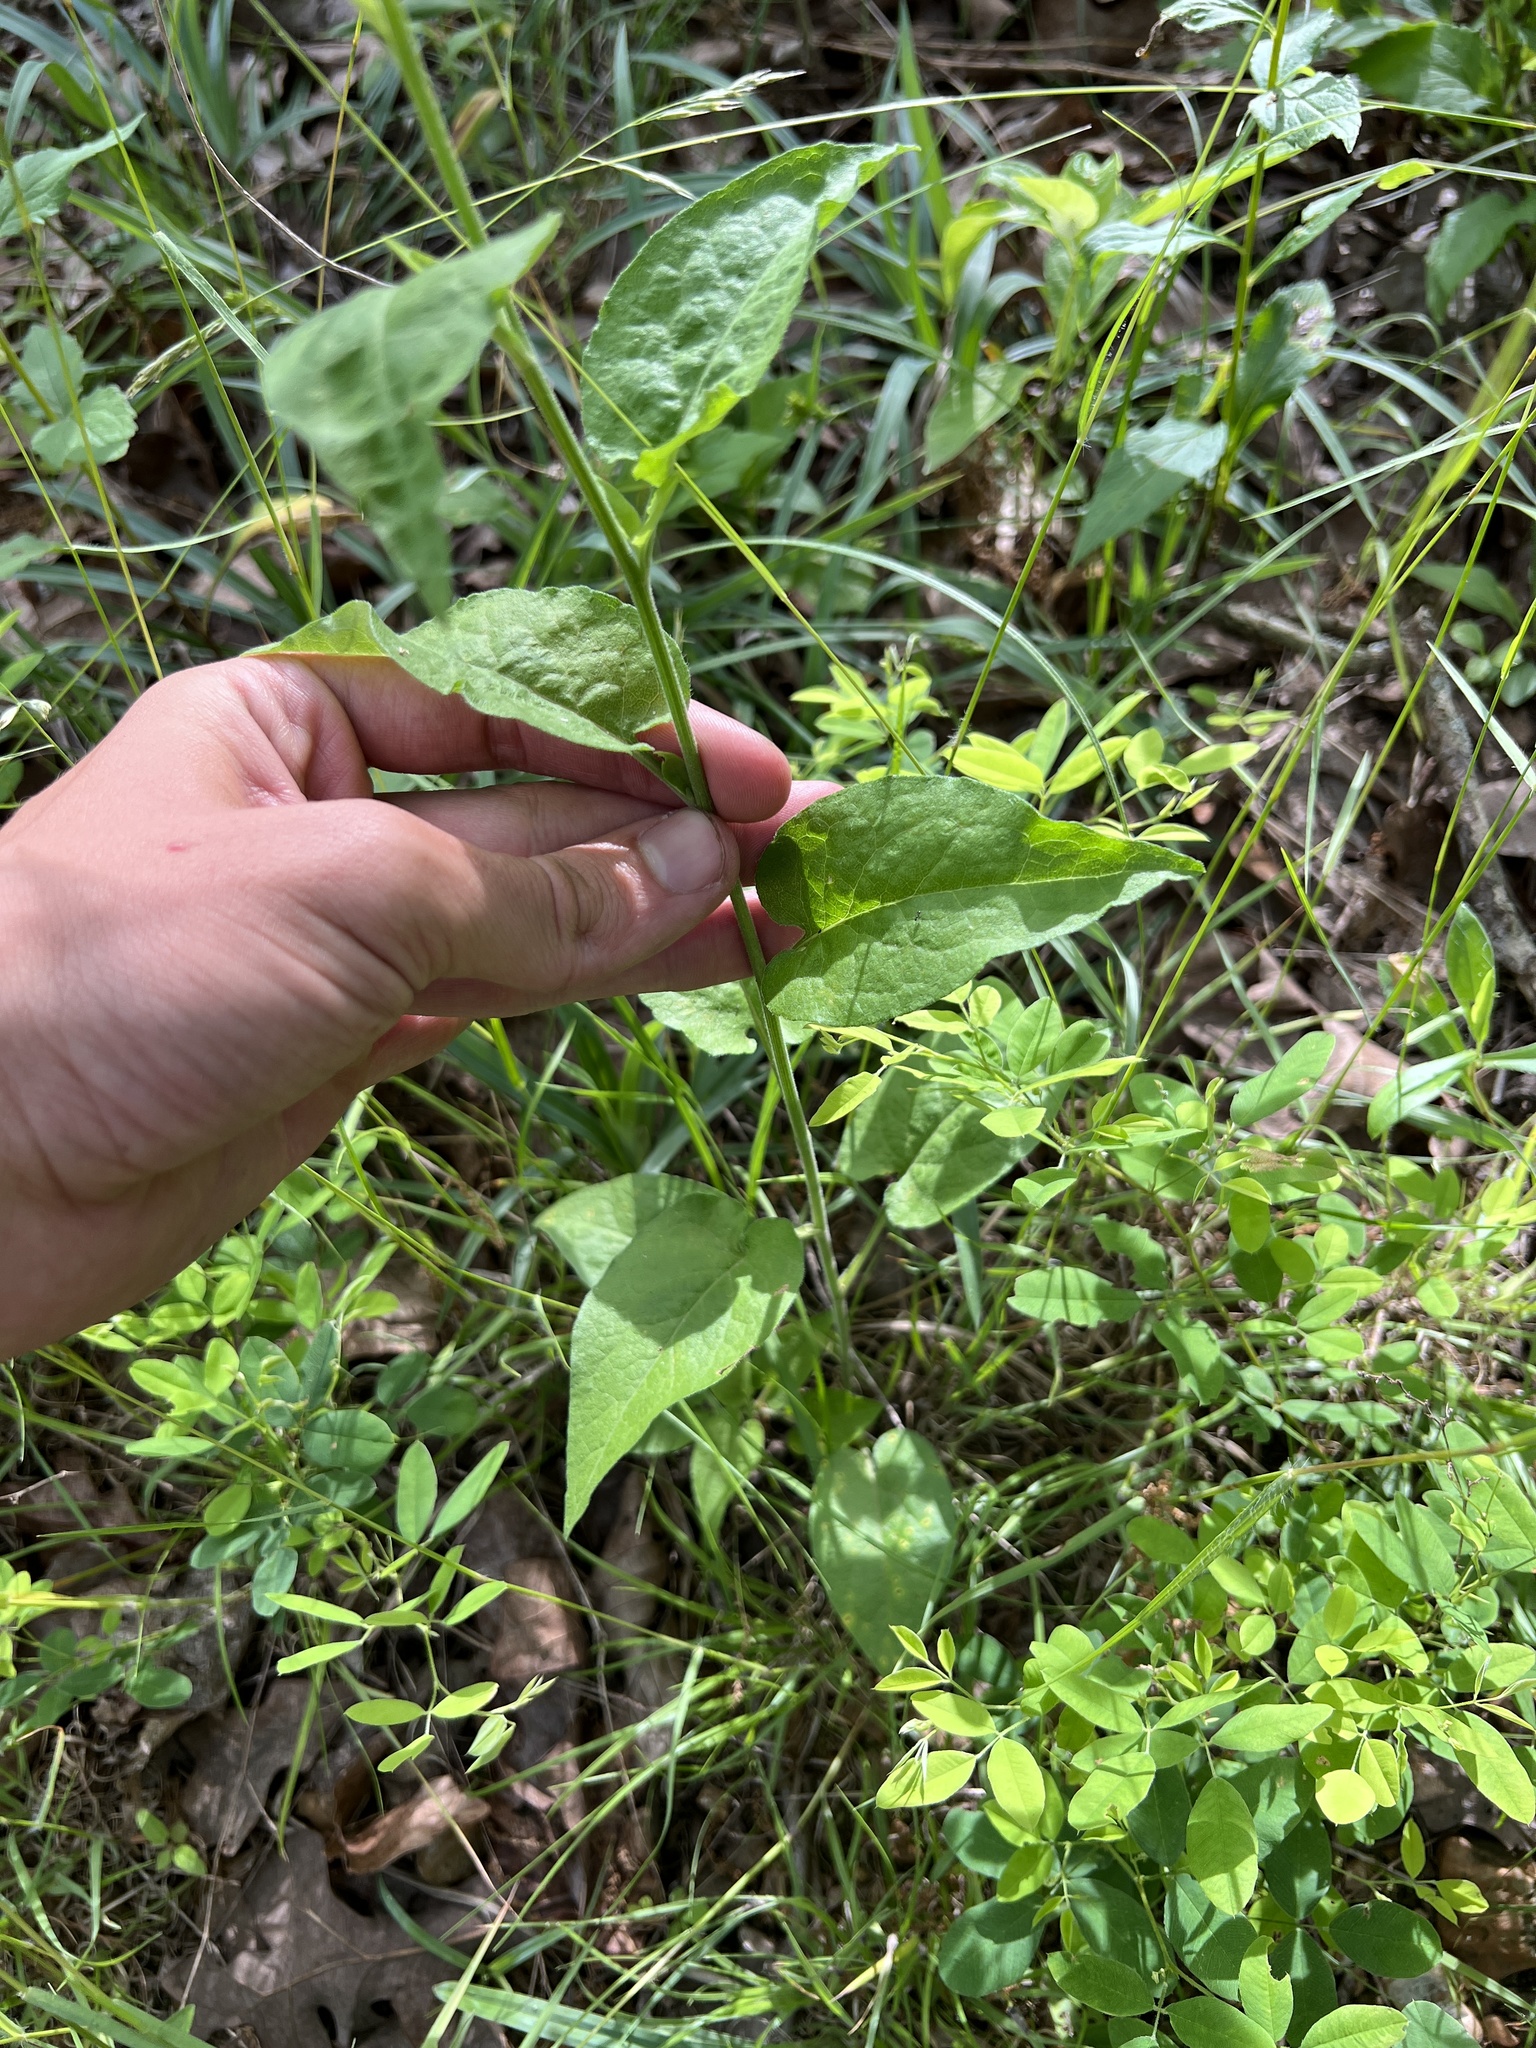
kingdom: Plantae
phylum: Tracheophyta
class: Magnoliopsida
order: Asterales
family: Asteraceae
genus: Symphyotrichum
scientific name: Symphyotrichum anomalum
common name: Many-ray aster
